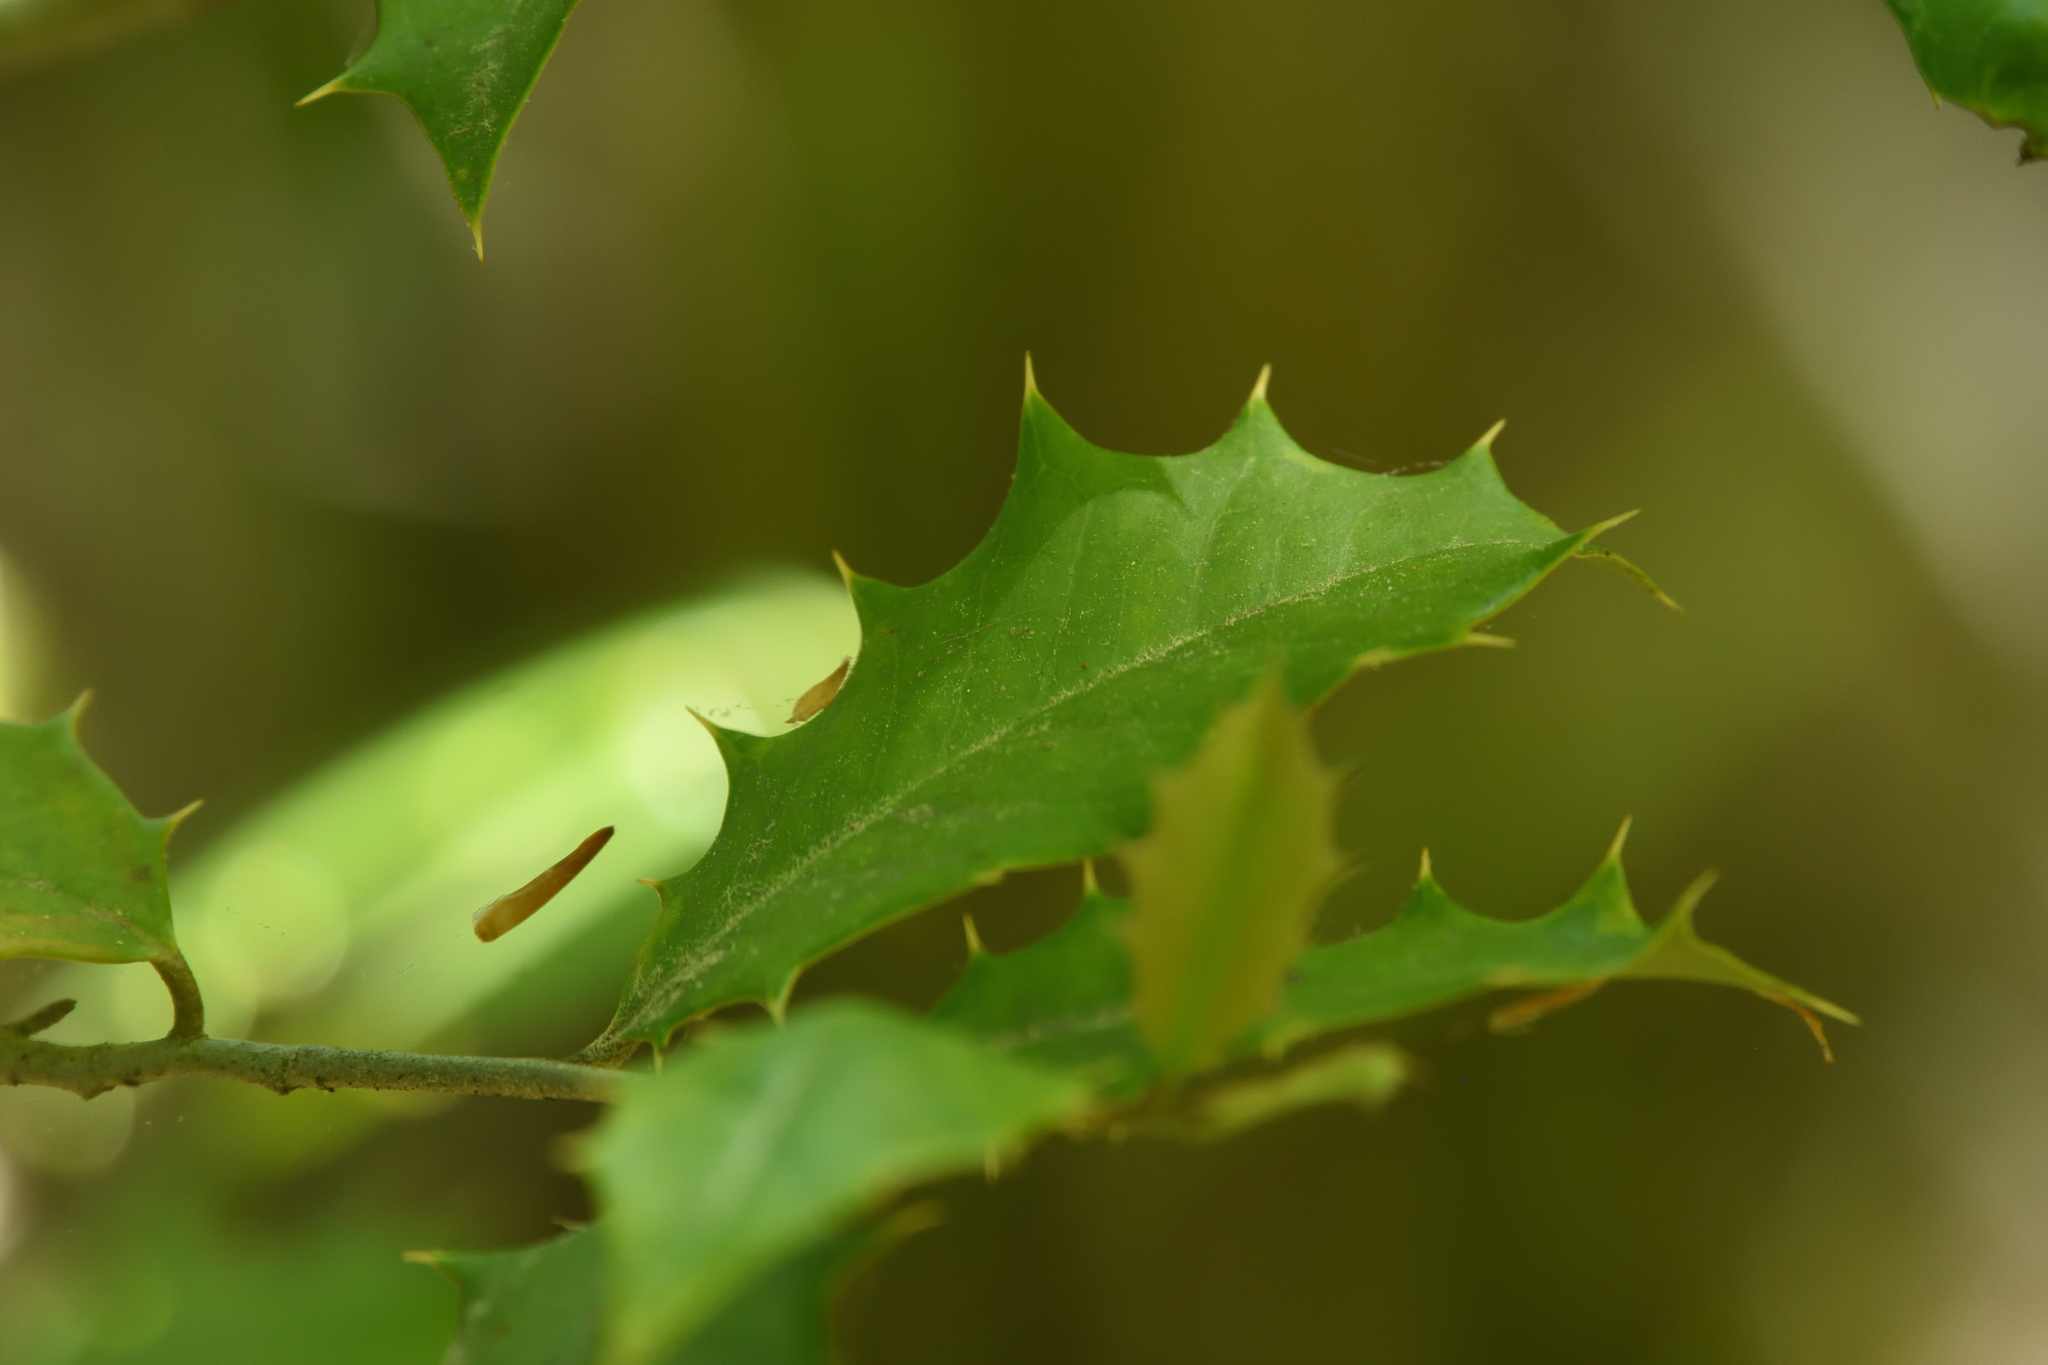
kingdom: Plantae
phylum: Tracheophyta
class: Magnoliopsida
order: Aquifoliales
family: Aquifoliaceae
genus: Ilex
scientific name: Ilex opaca
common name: American holly
